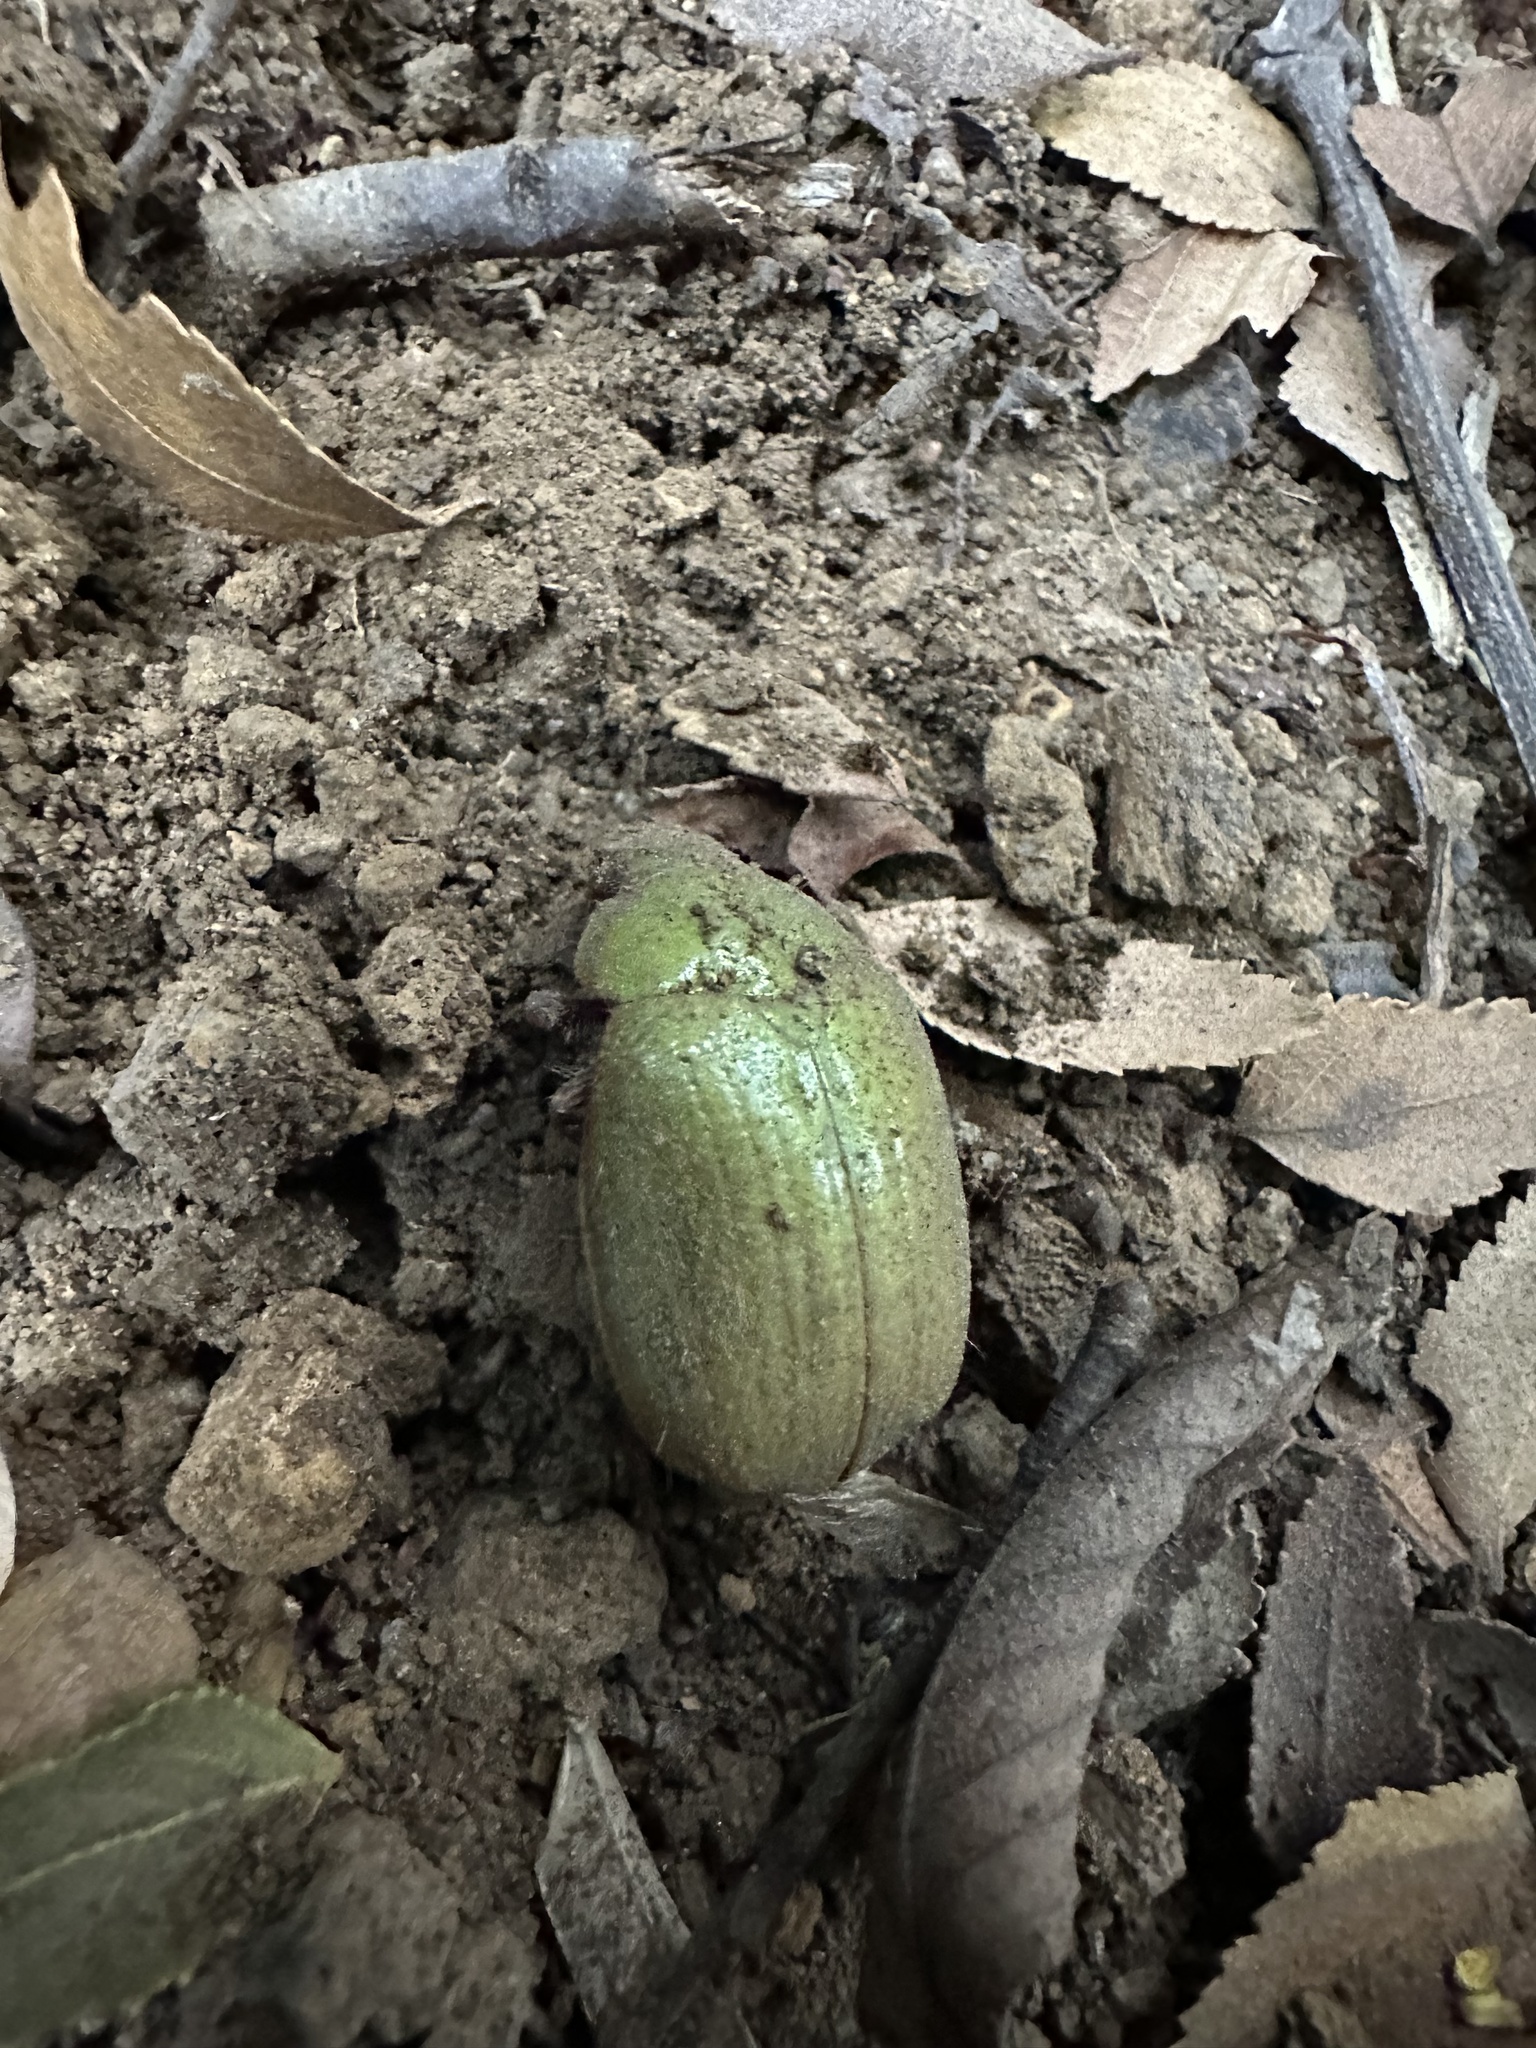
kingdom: Animalia
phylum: Arthropoda
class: Insecta
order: Coleoptera
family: Scarabaeidae
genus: Modialis
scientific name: Modialis prasinella
